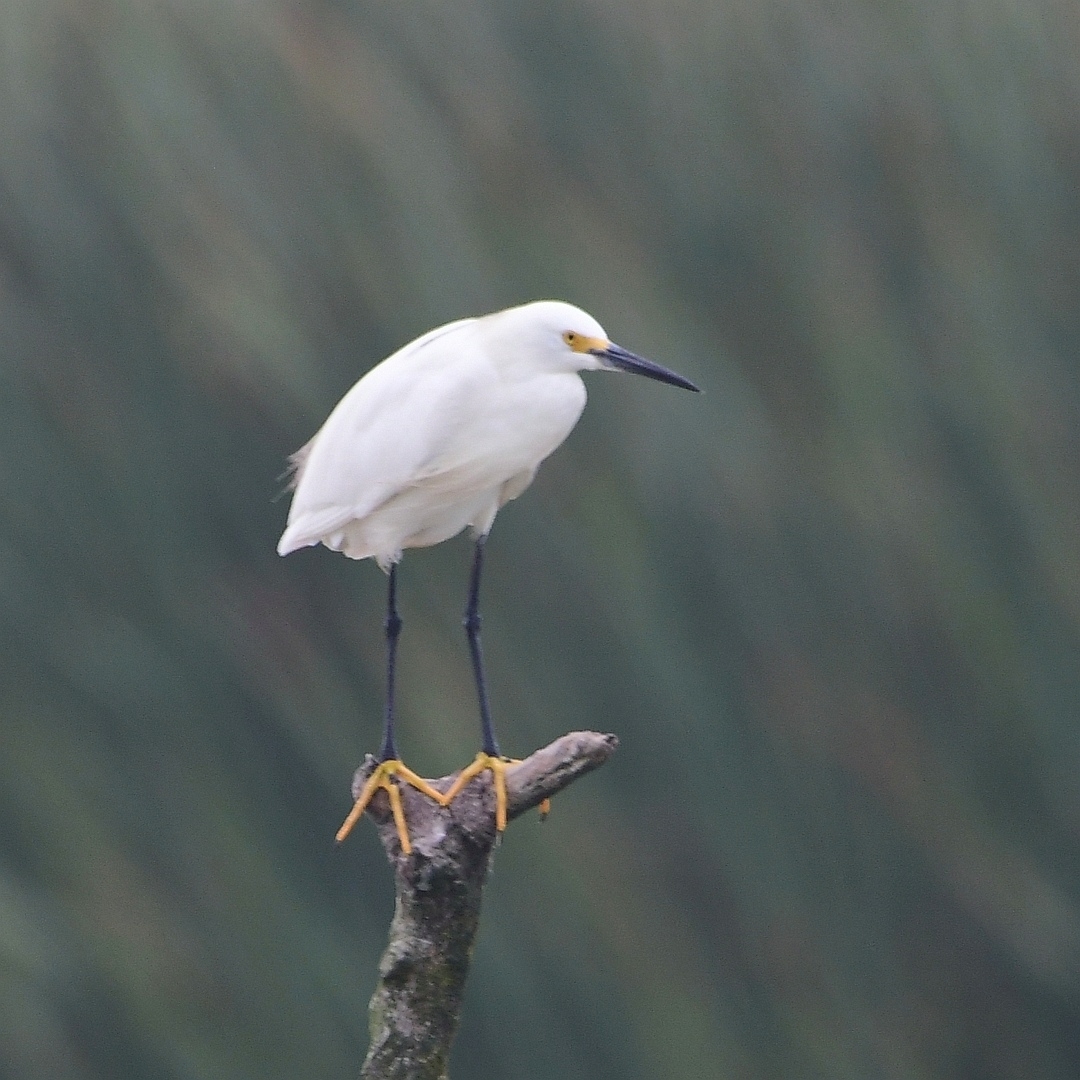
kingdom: Animalia
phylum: Chordata
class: Aves
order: Pelecaniformes
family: Ardeidae
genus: Egretta
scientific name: Egretta thula
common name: Snowy egret
